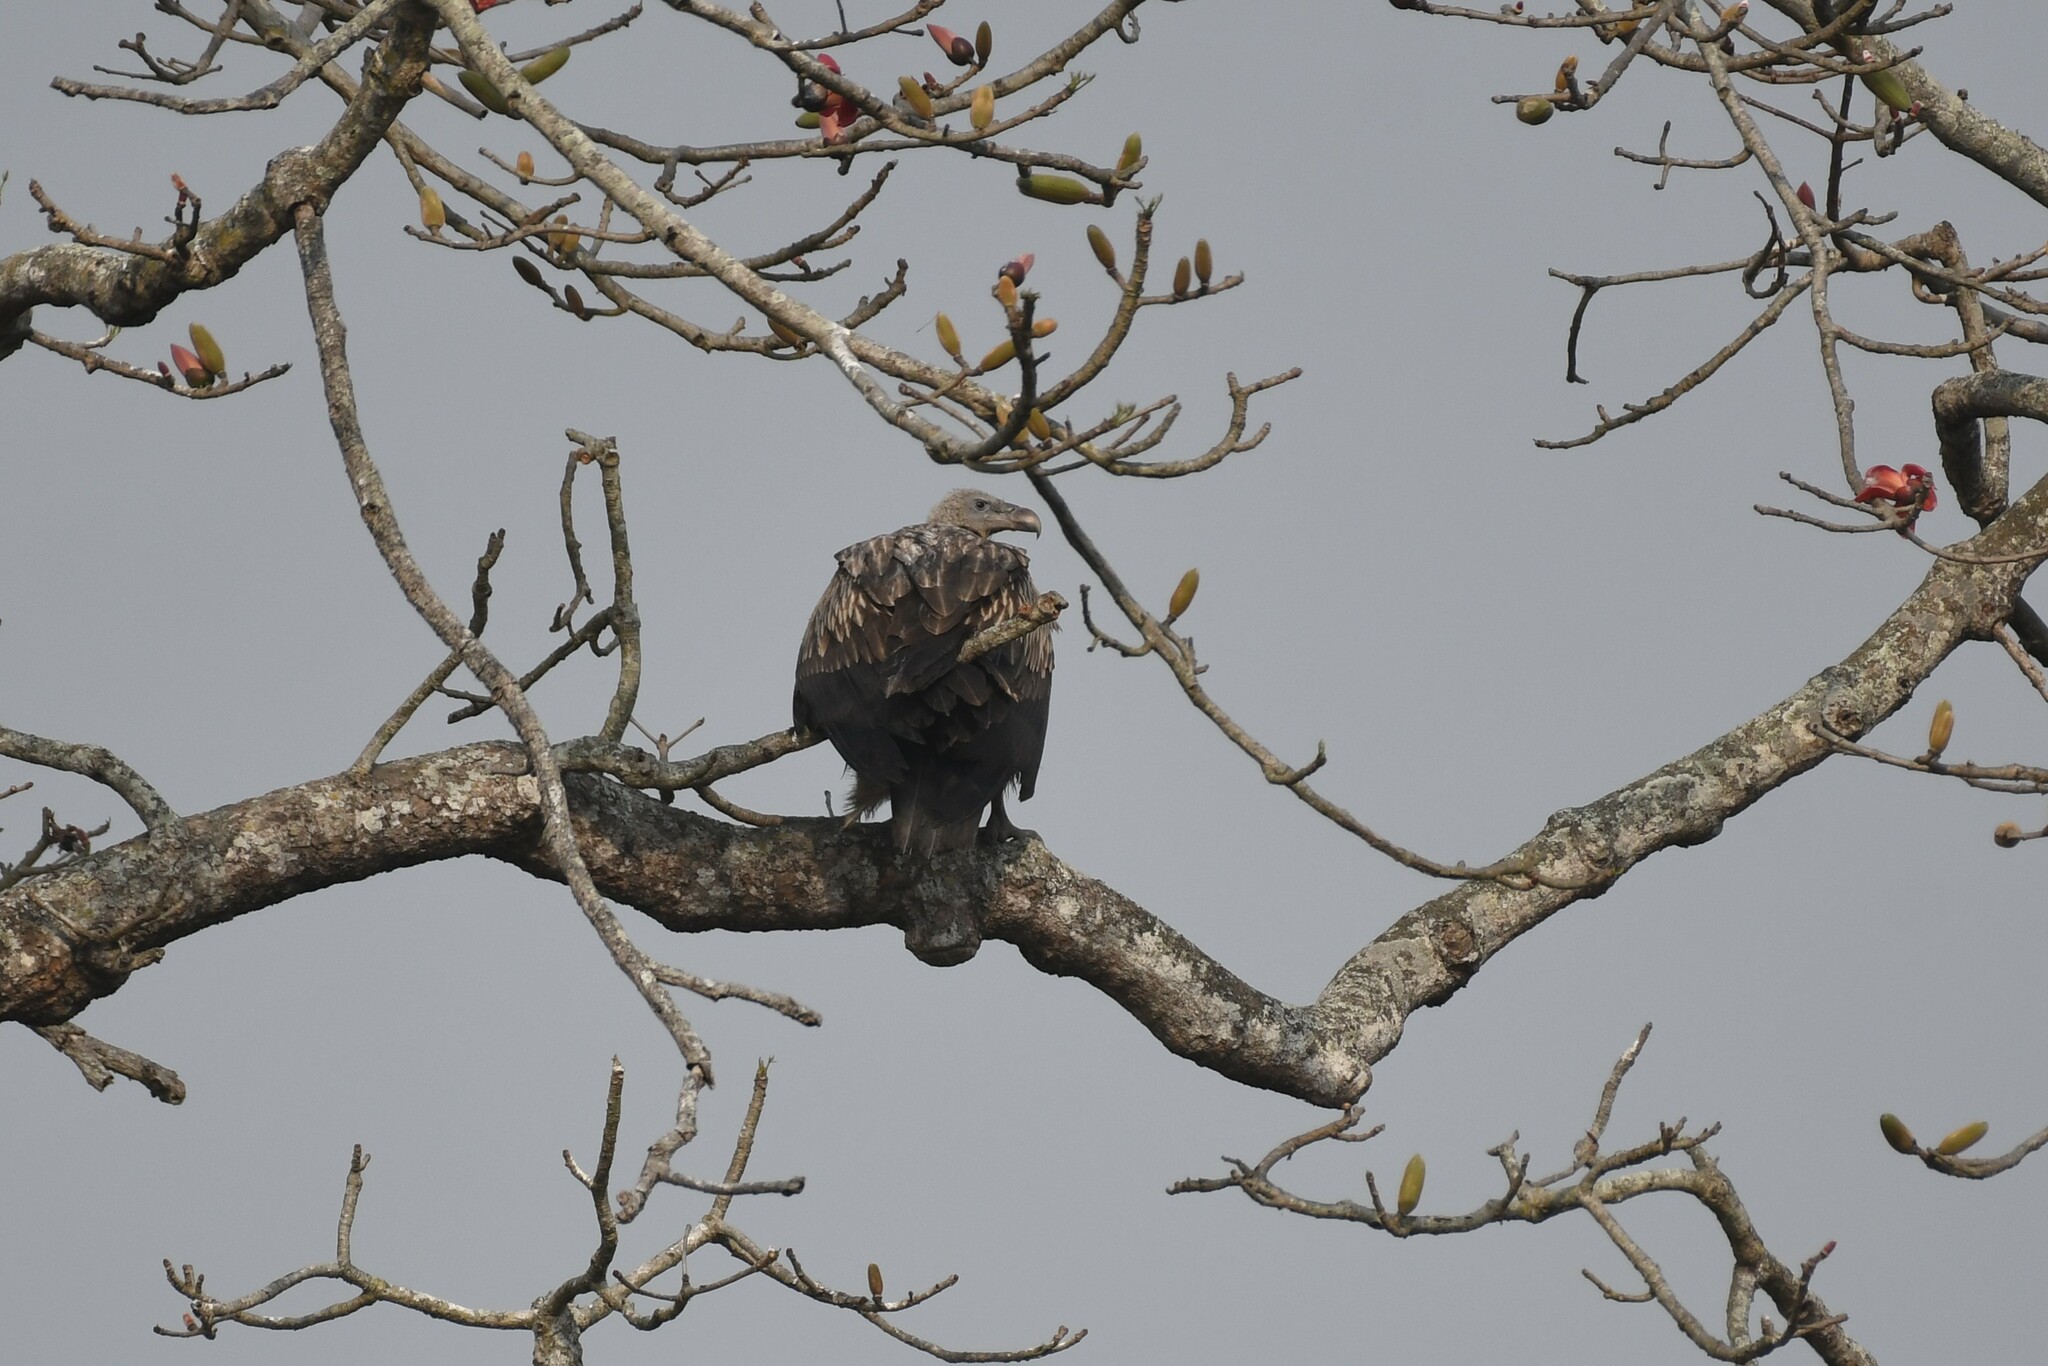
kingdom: Animalia
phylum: Chordata
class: Aves
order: Accipitriformes
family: Accipitridae
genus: Gyps
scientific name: Gyps himalayensis
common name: Himalayan griffon
